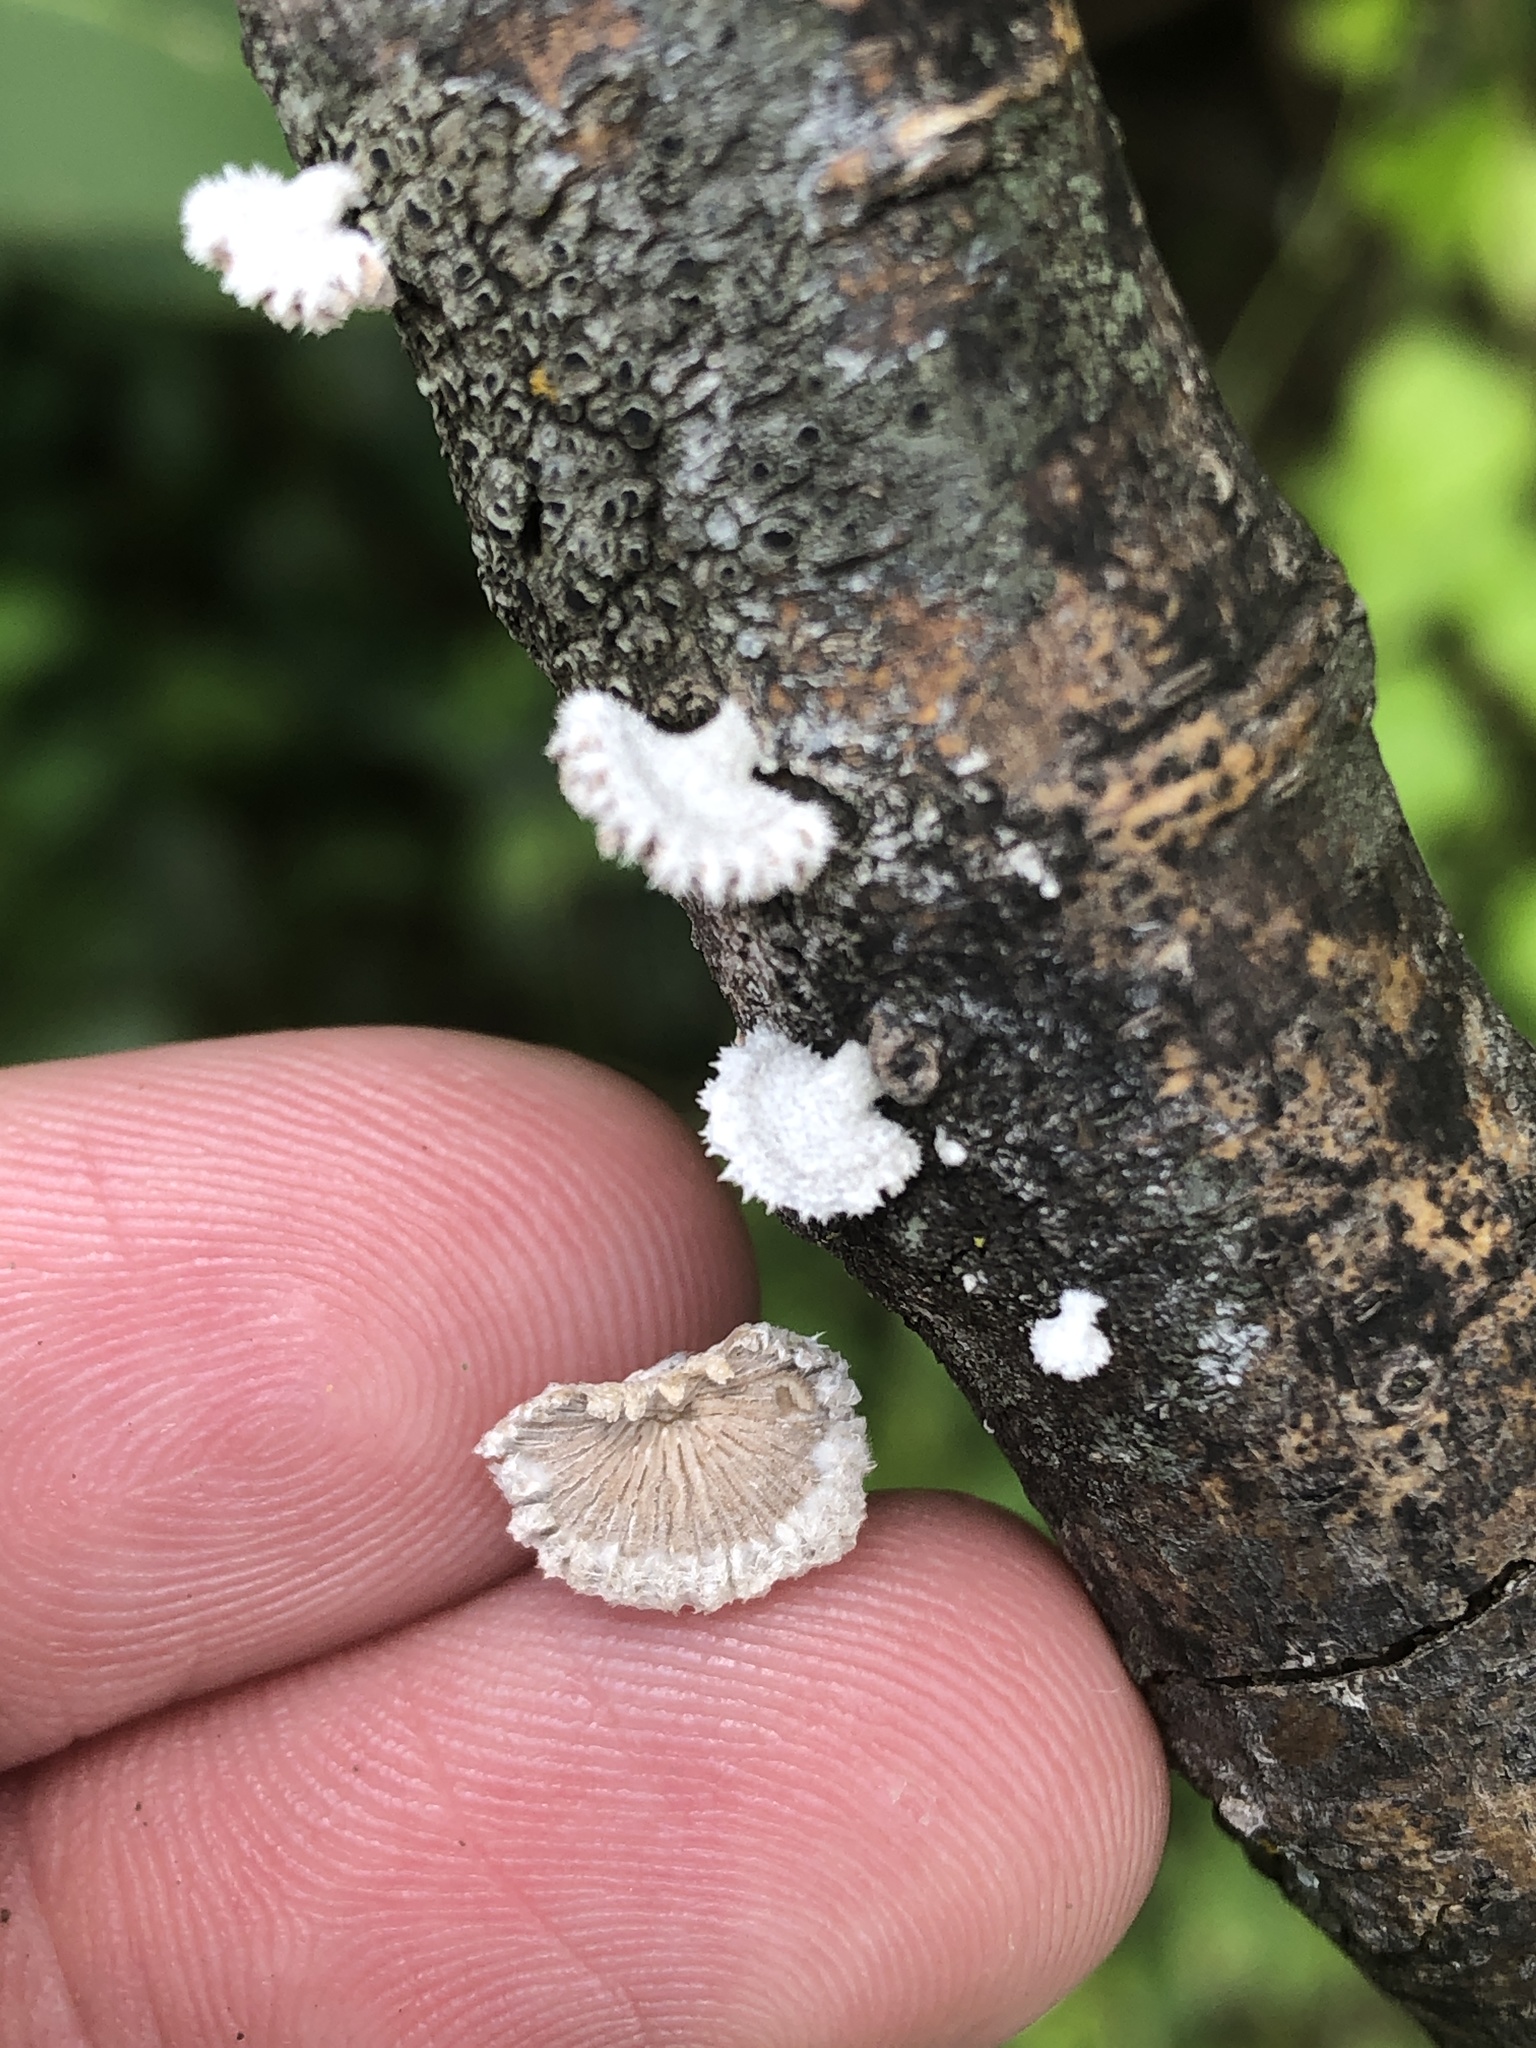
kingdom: Fungi
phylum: Basidiomycota
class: Agaricomycetes
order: Agaricales
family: Schizophyllaceae
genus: Schizophyllum
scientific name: Schizophyllum commune
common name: Common porecrust
